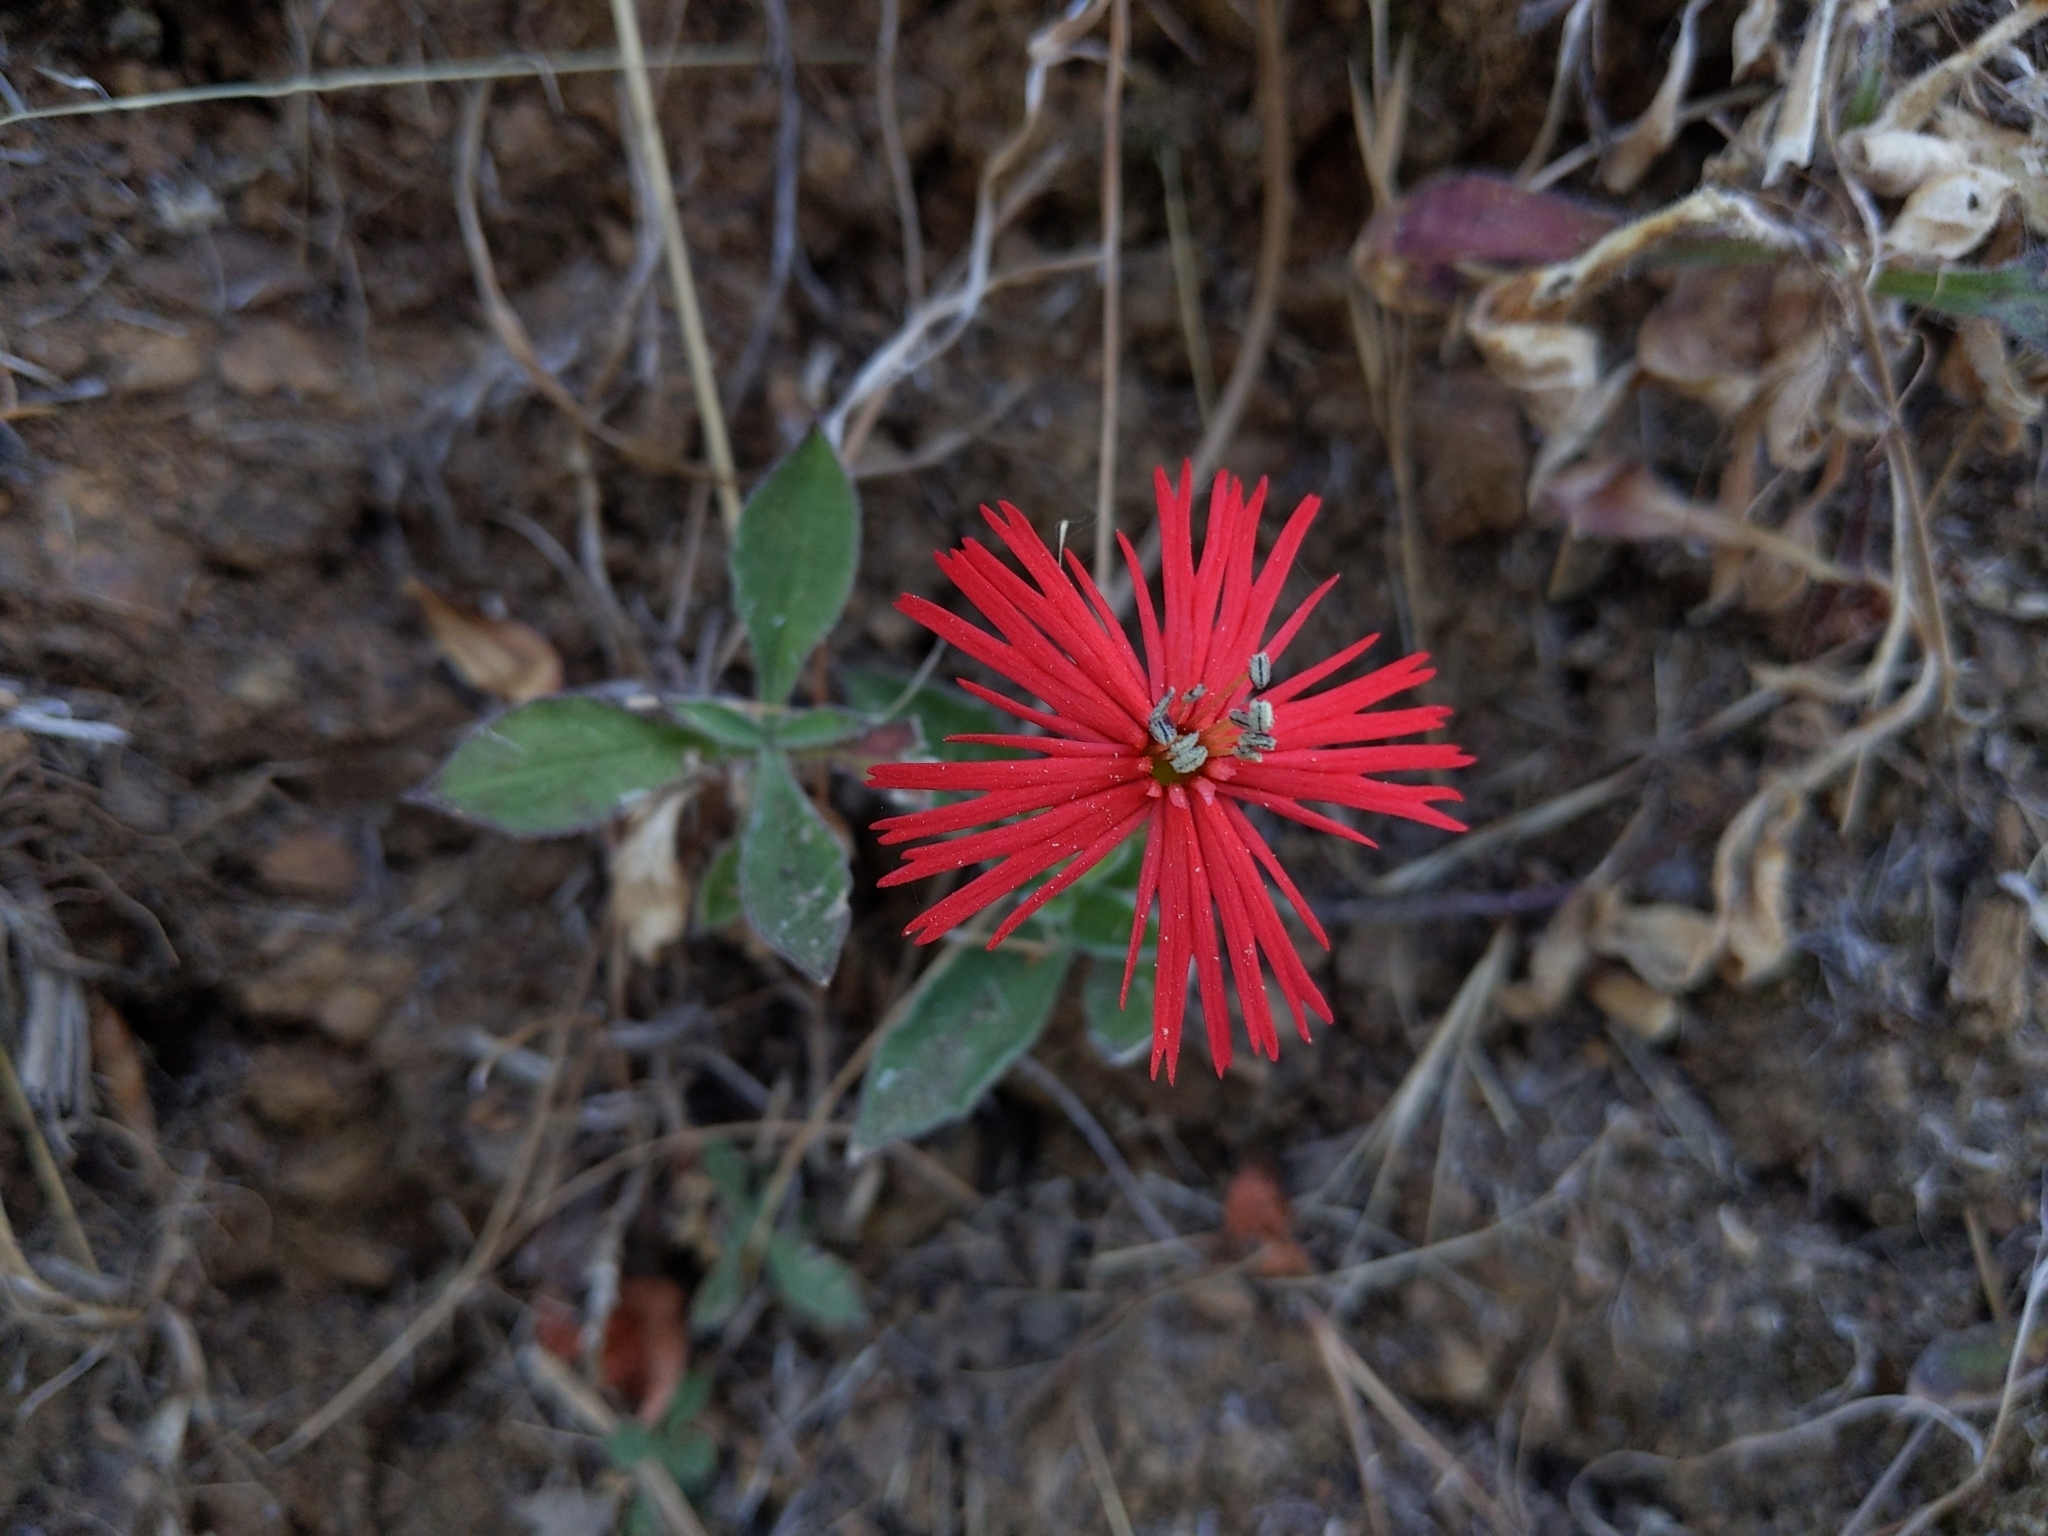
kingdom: Plantae
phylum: Tracheophyta
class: Magnoliopsida
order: Caryophyllales
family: Caryophyllaceae
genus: Silene
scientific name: Silene laciniata
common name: Indian-pink
